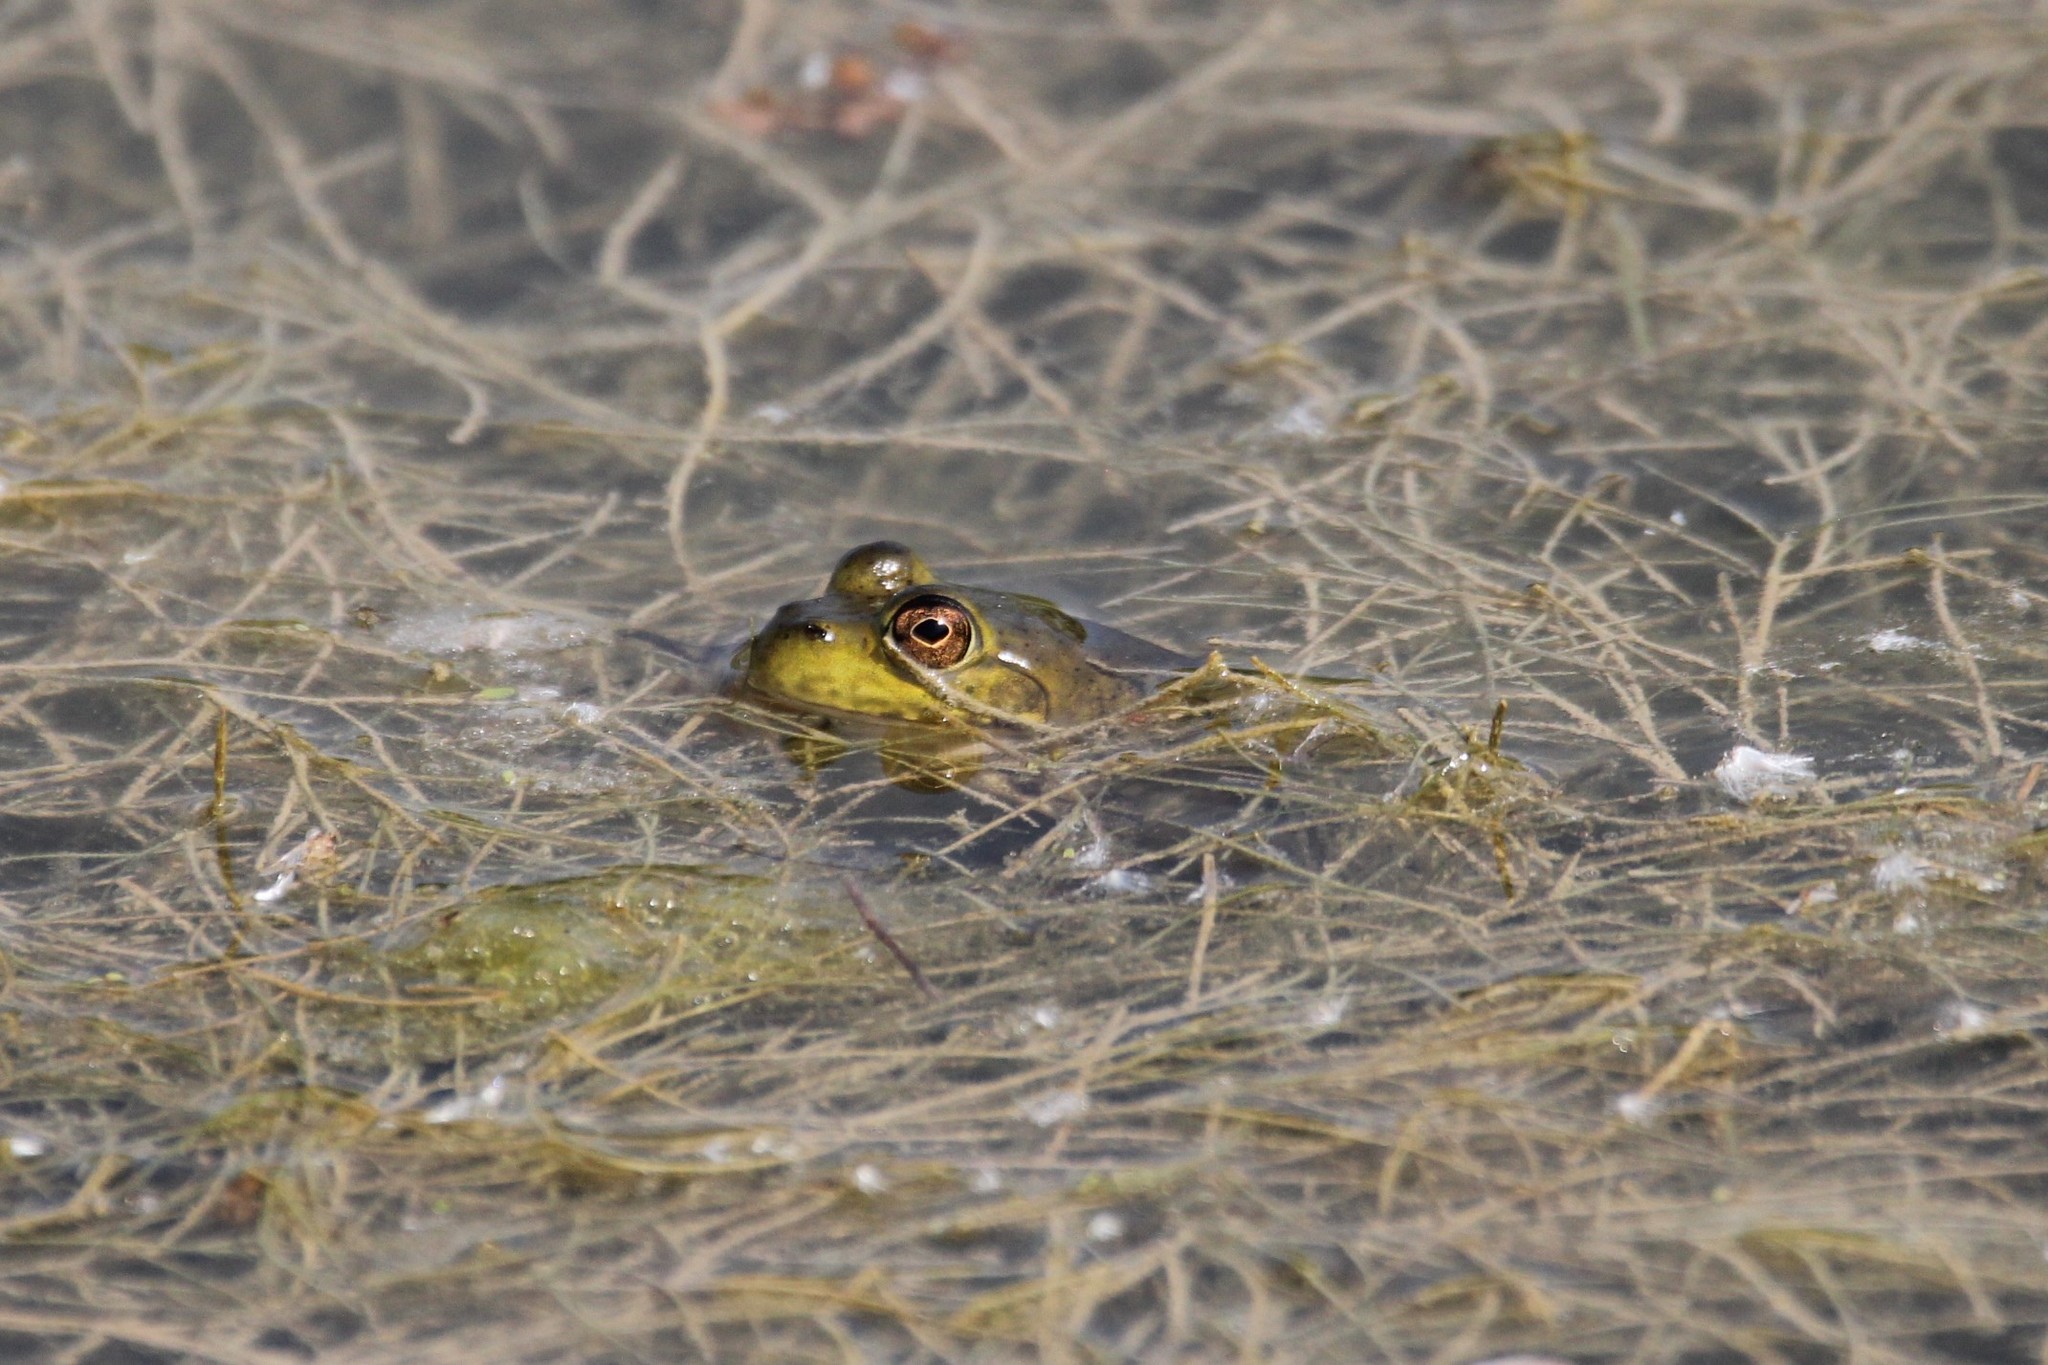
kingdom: Animalia
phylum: Chordata
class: Amphibia
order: Anura
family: Ranidae
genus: Lithobates
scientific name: Lithobates catesbeianus
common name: American bullfrog
